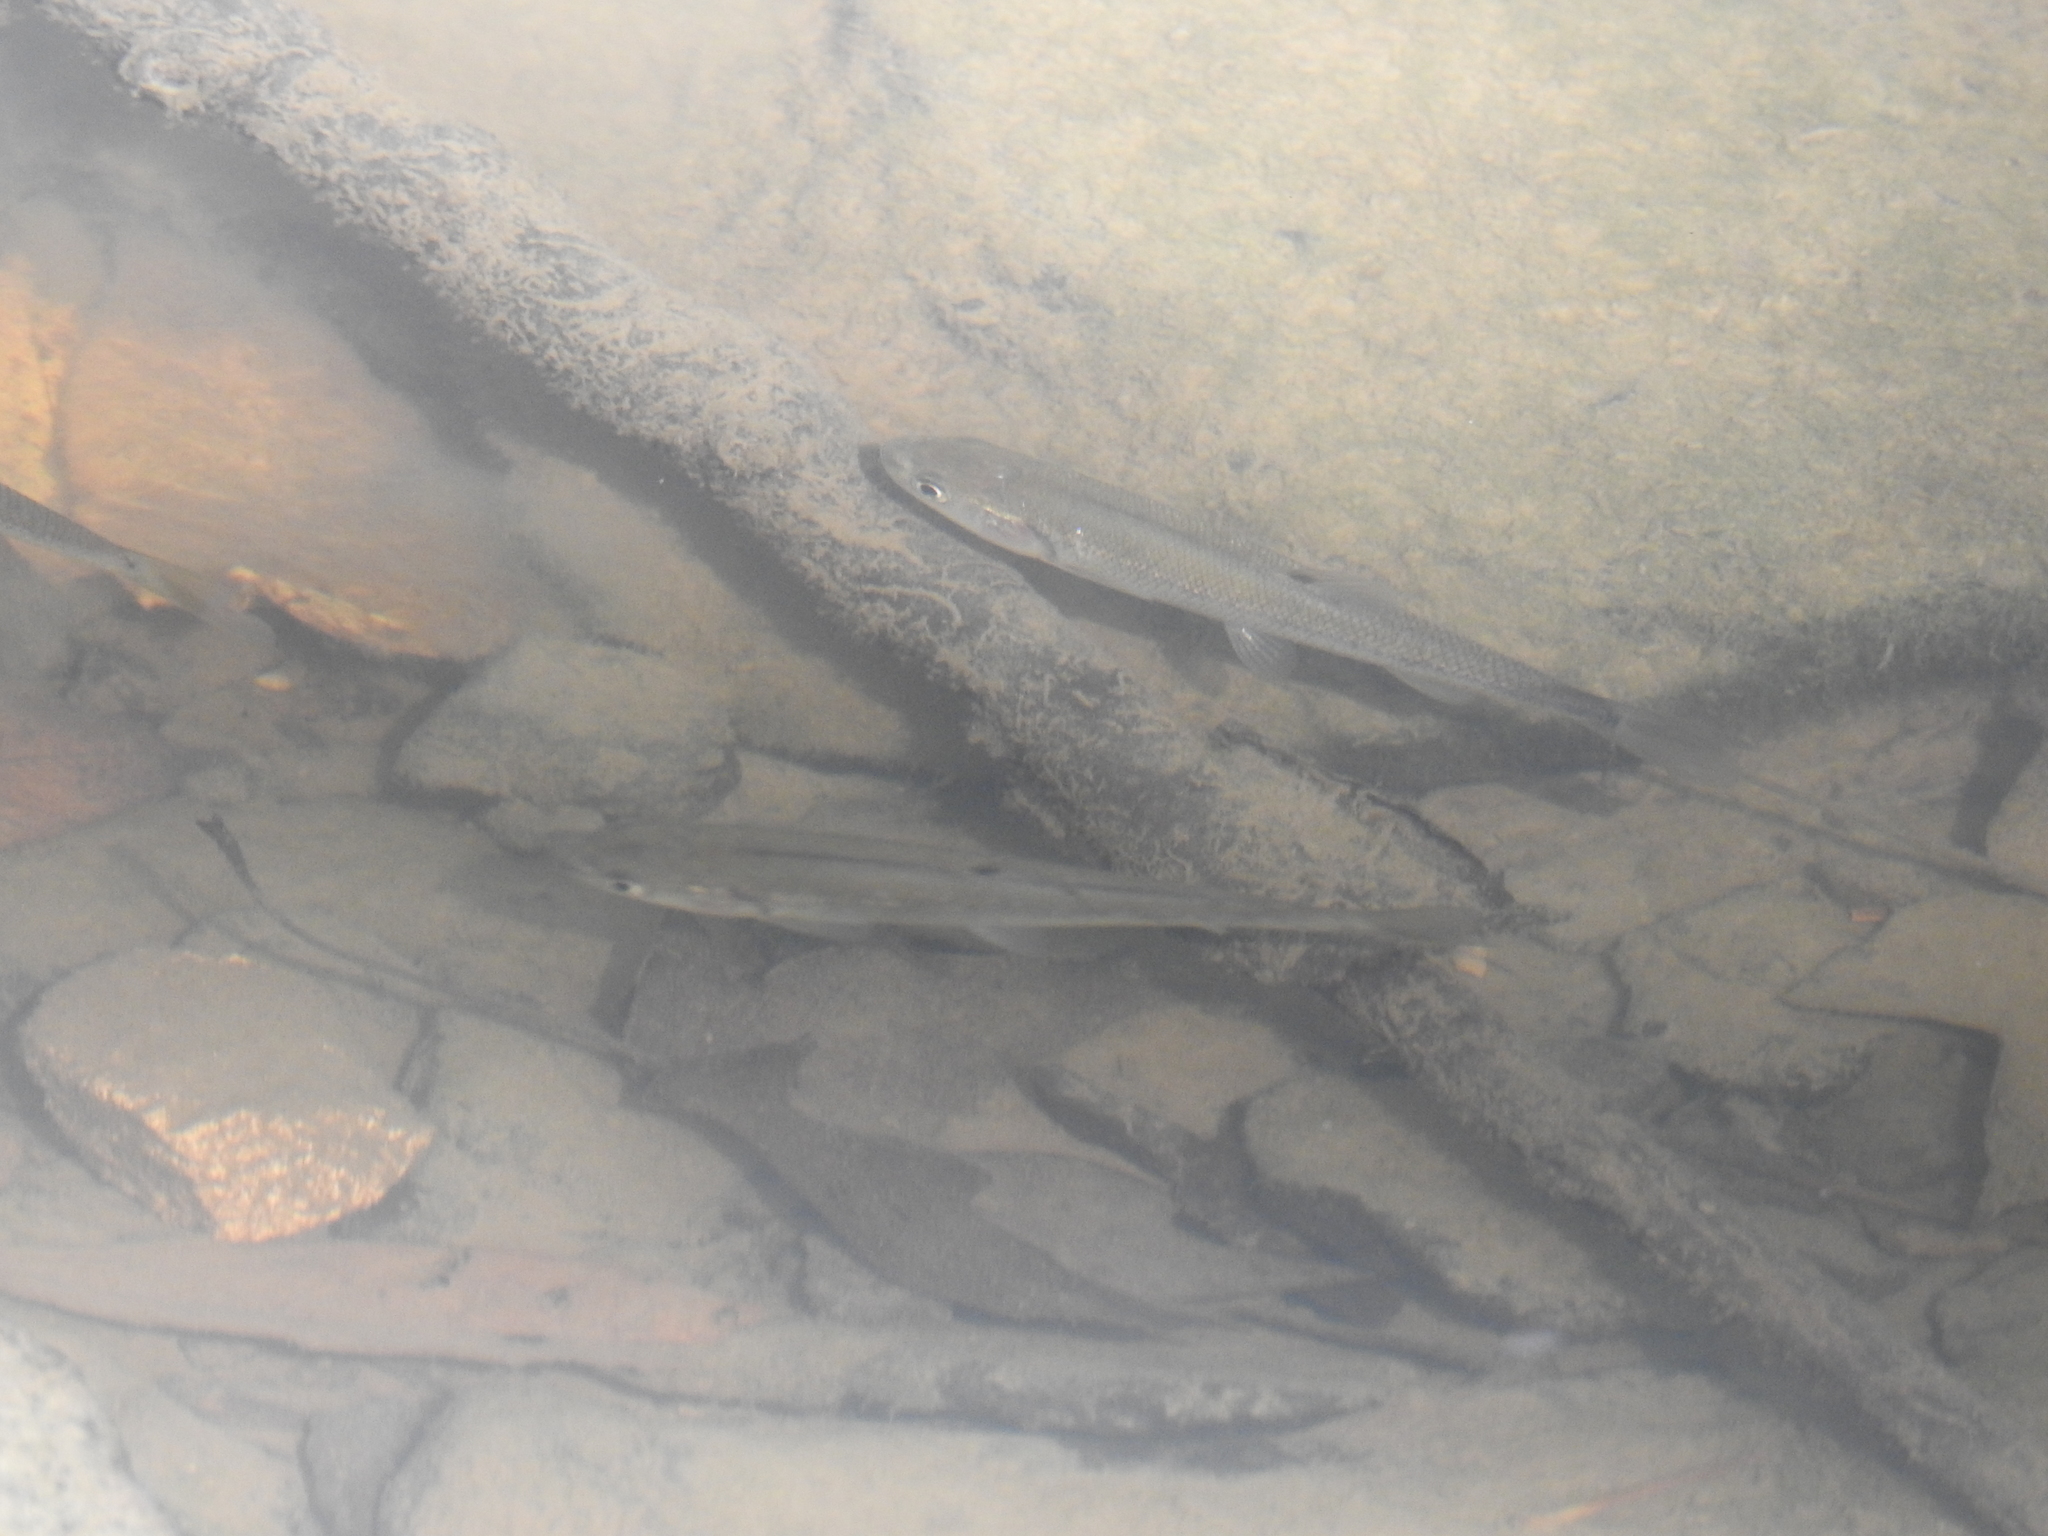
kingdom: Animalia
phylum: Chordata
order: Cypriniformes
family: Cyprinidae
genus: Semotilus
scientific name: Semotilus atromaculatus
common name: Creek chub
